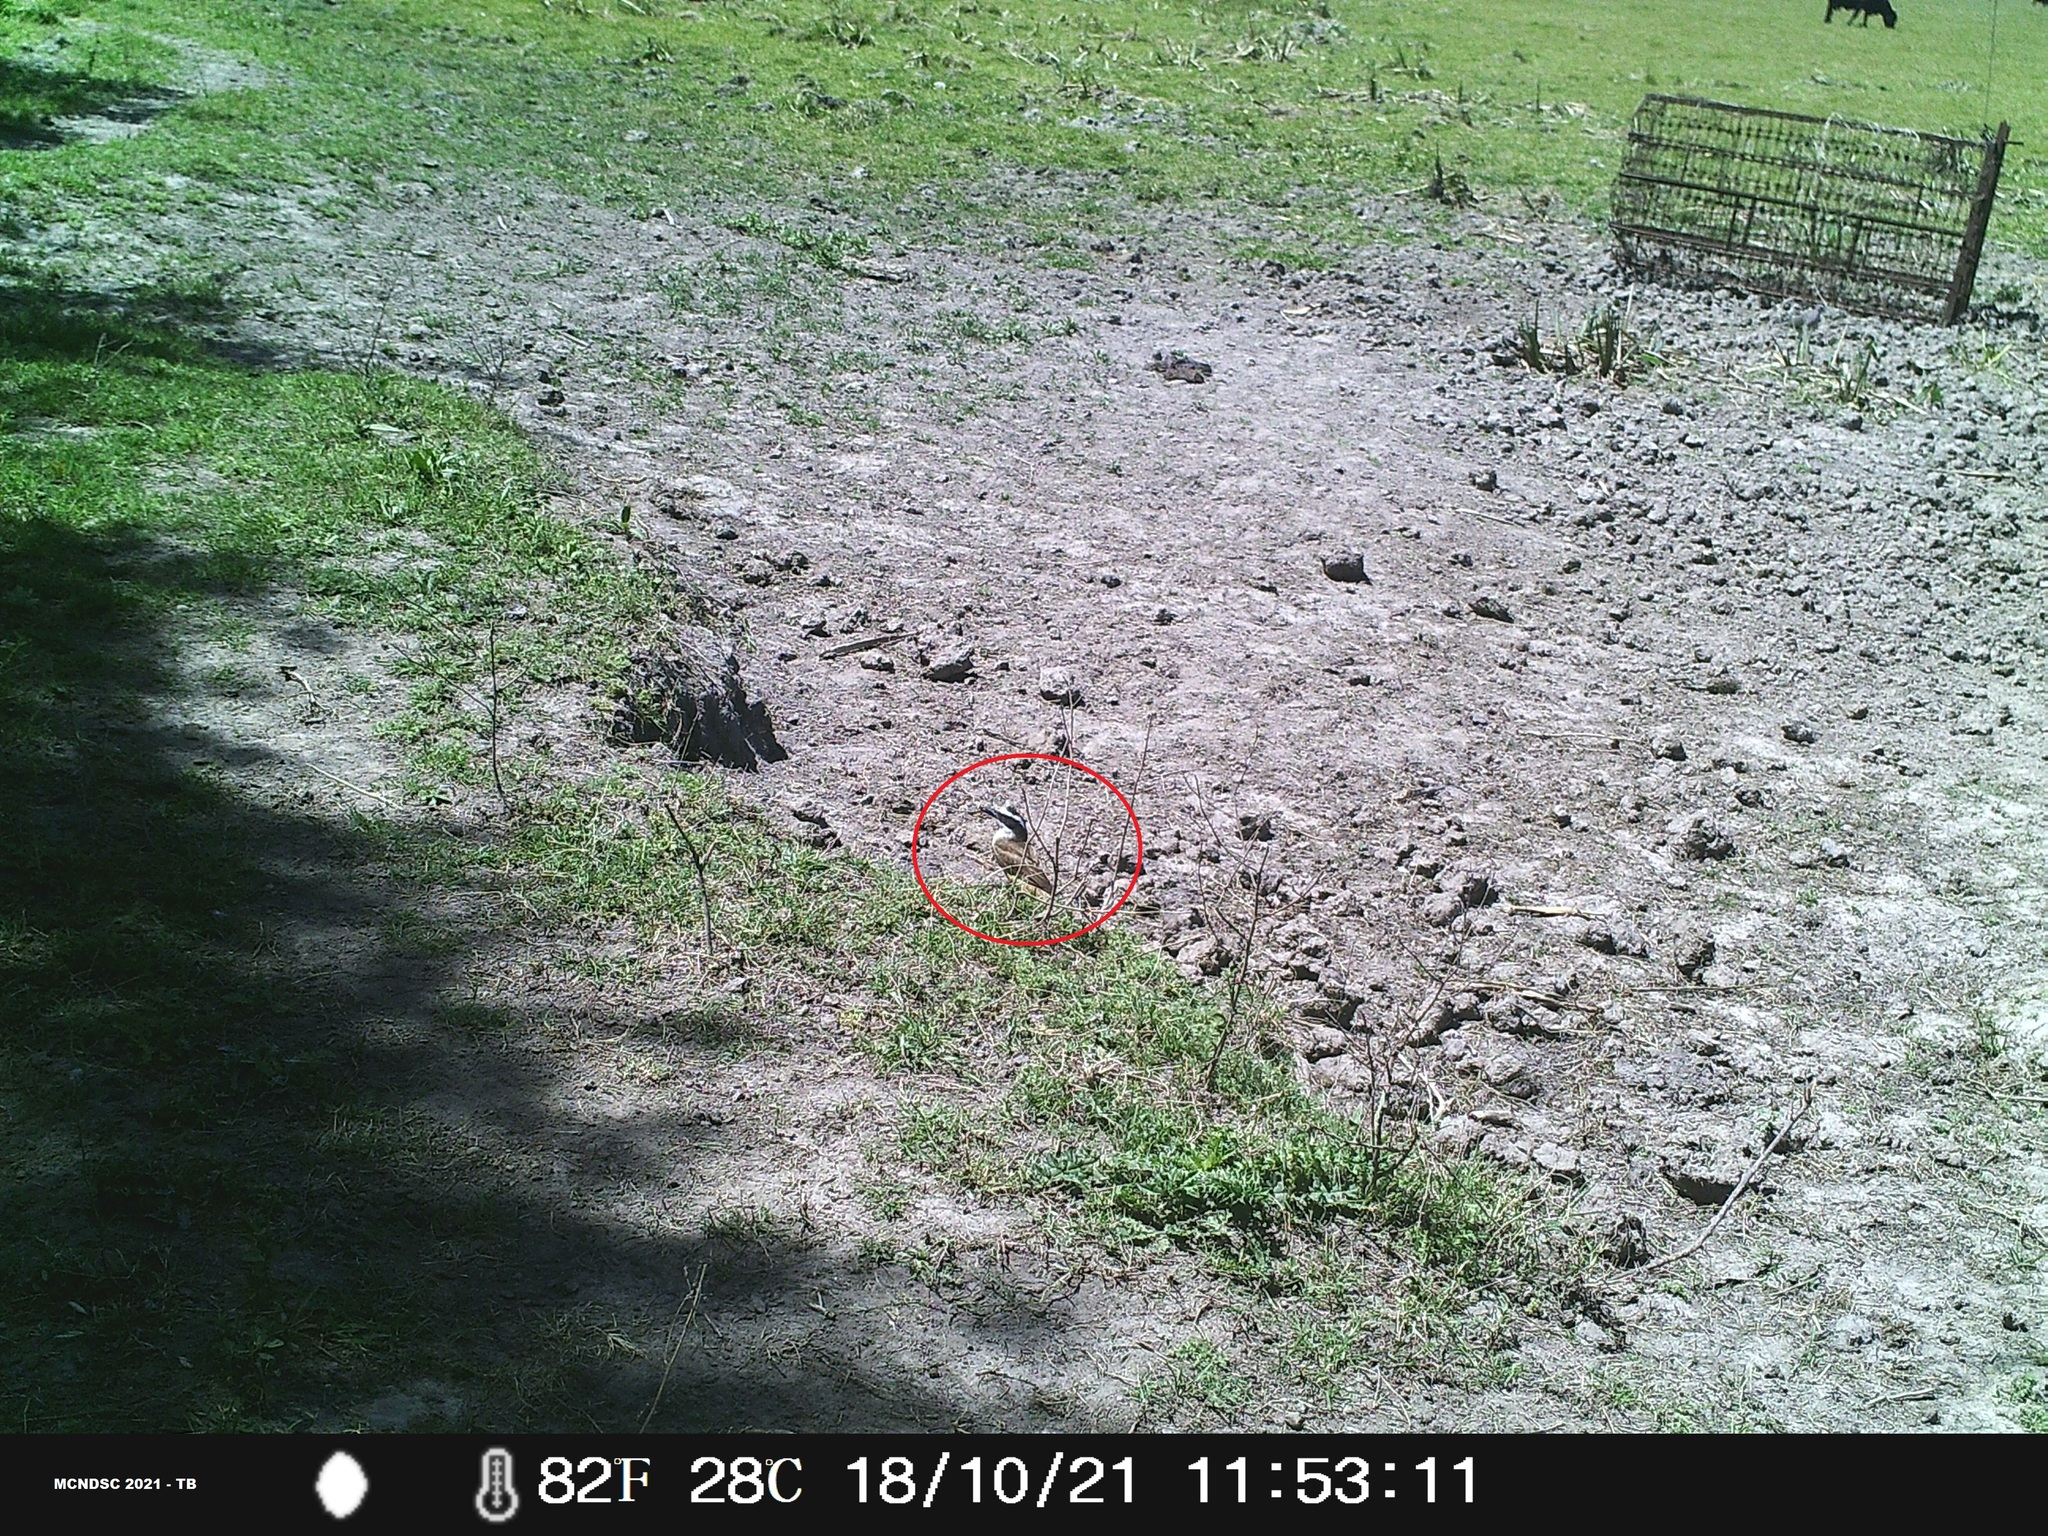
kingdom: Animalia
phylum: Chordata
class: Aves
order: Passeriformes
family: Tyrannidae
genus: Pitangus
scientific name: Pitangus sulphuratus
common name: Great kiskadee
